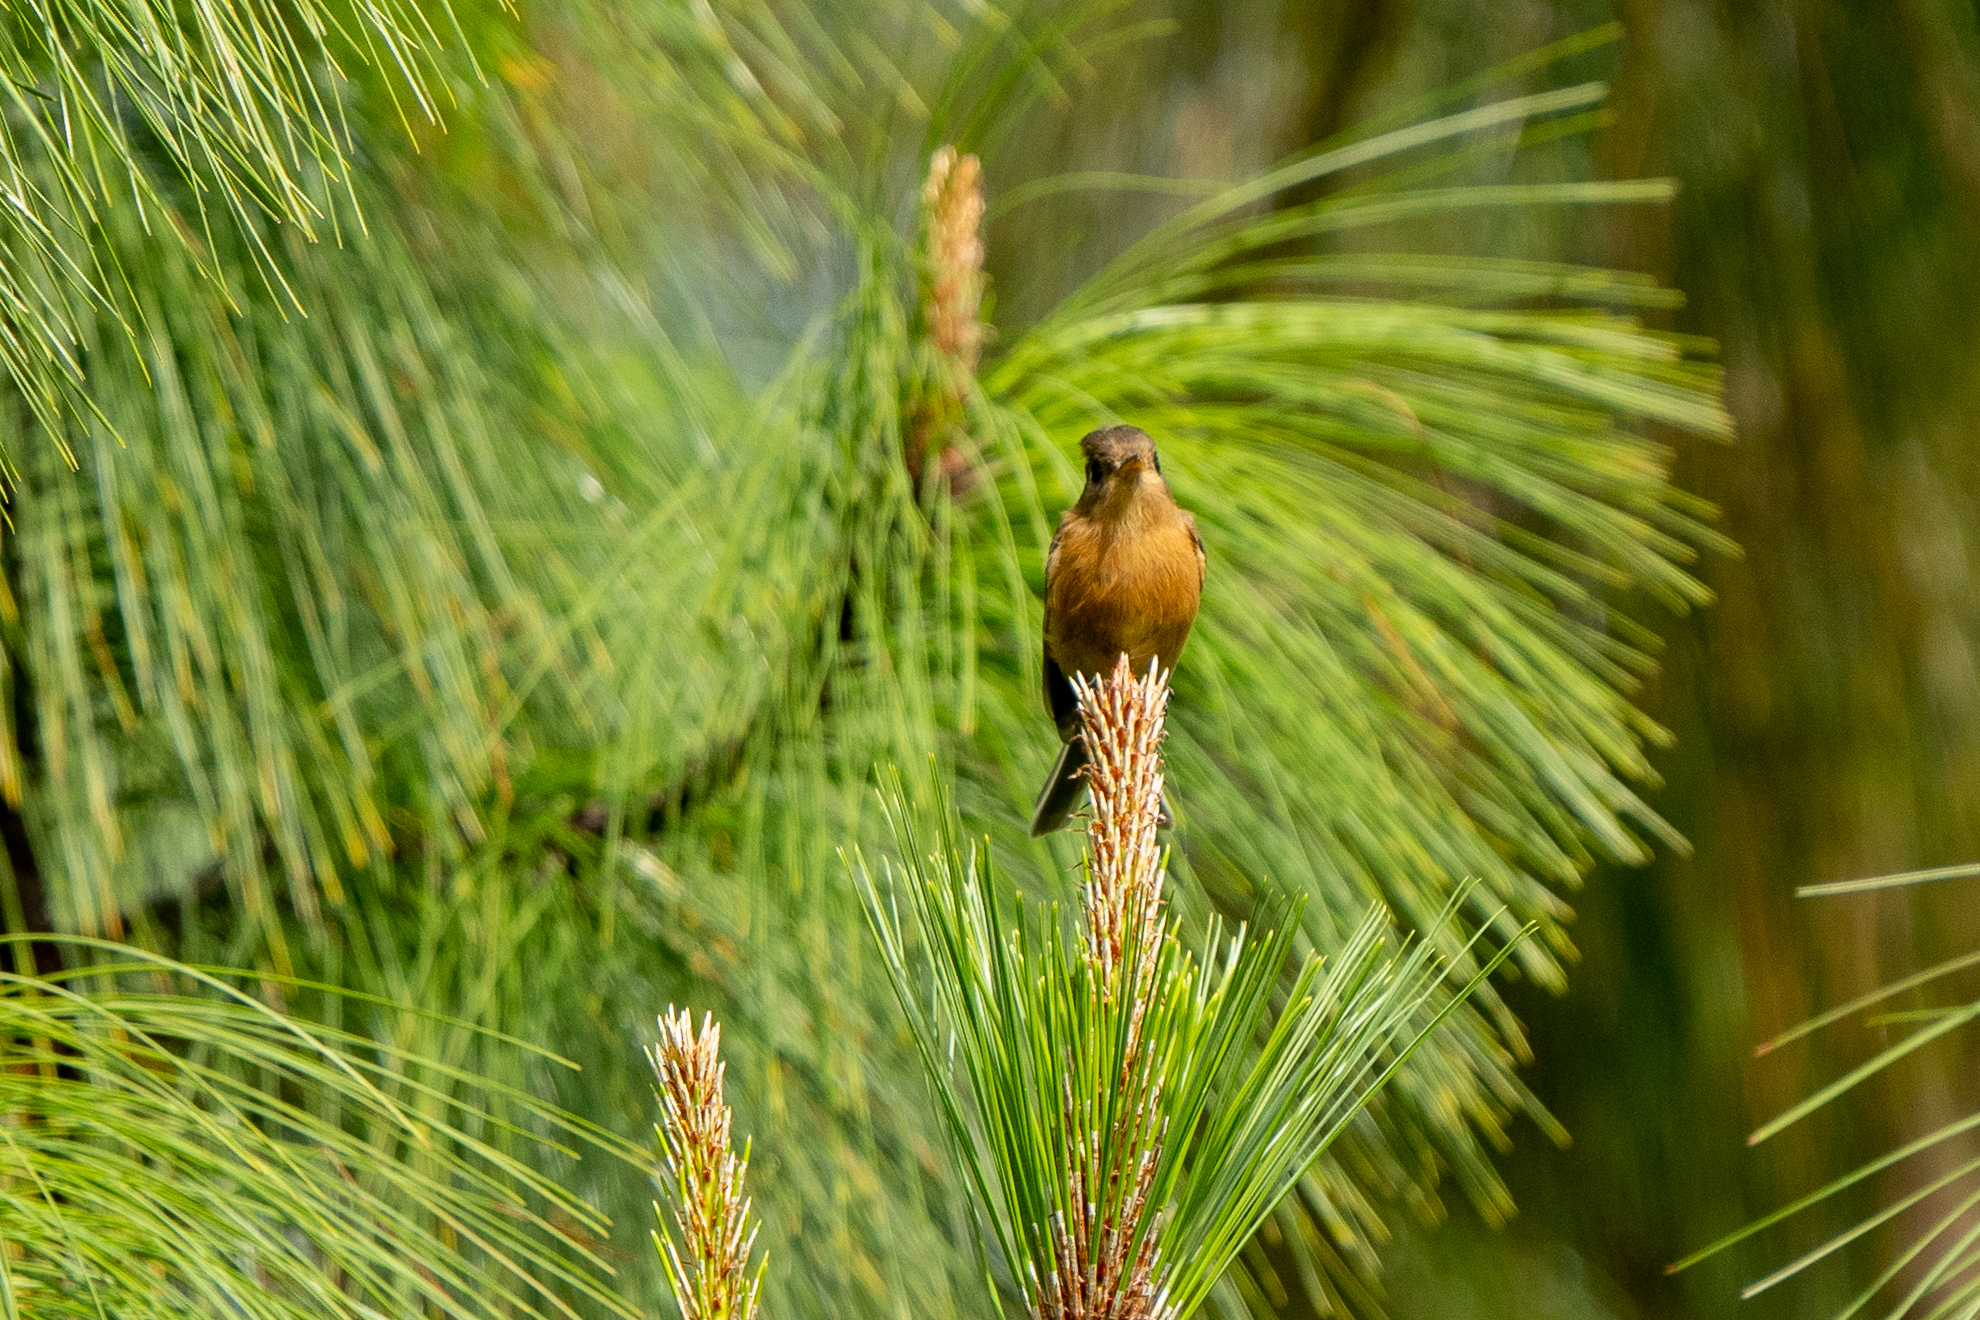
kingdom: Animalia
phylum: Chordata
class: Aves
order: Passeriformes
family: Tyrannidae
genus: Empidonax
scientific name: Empidonax fulvifrons
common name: Buff-breasted flycatcher
